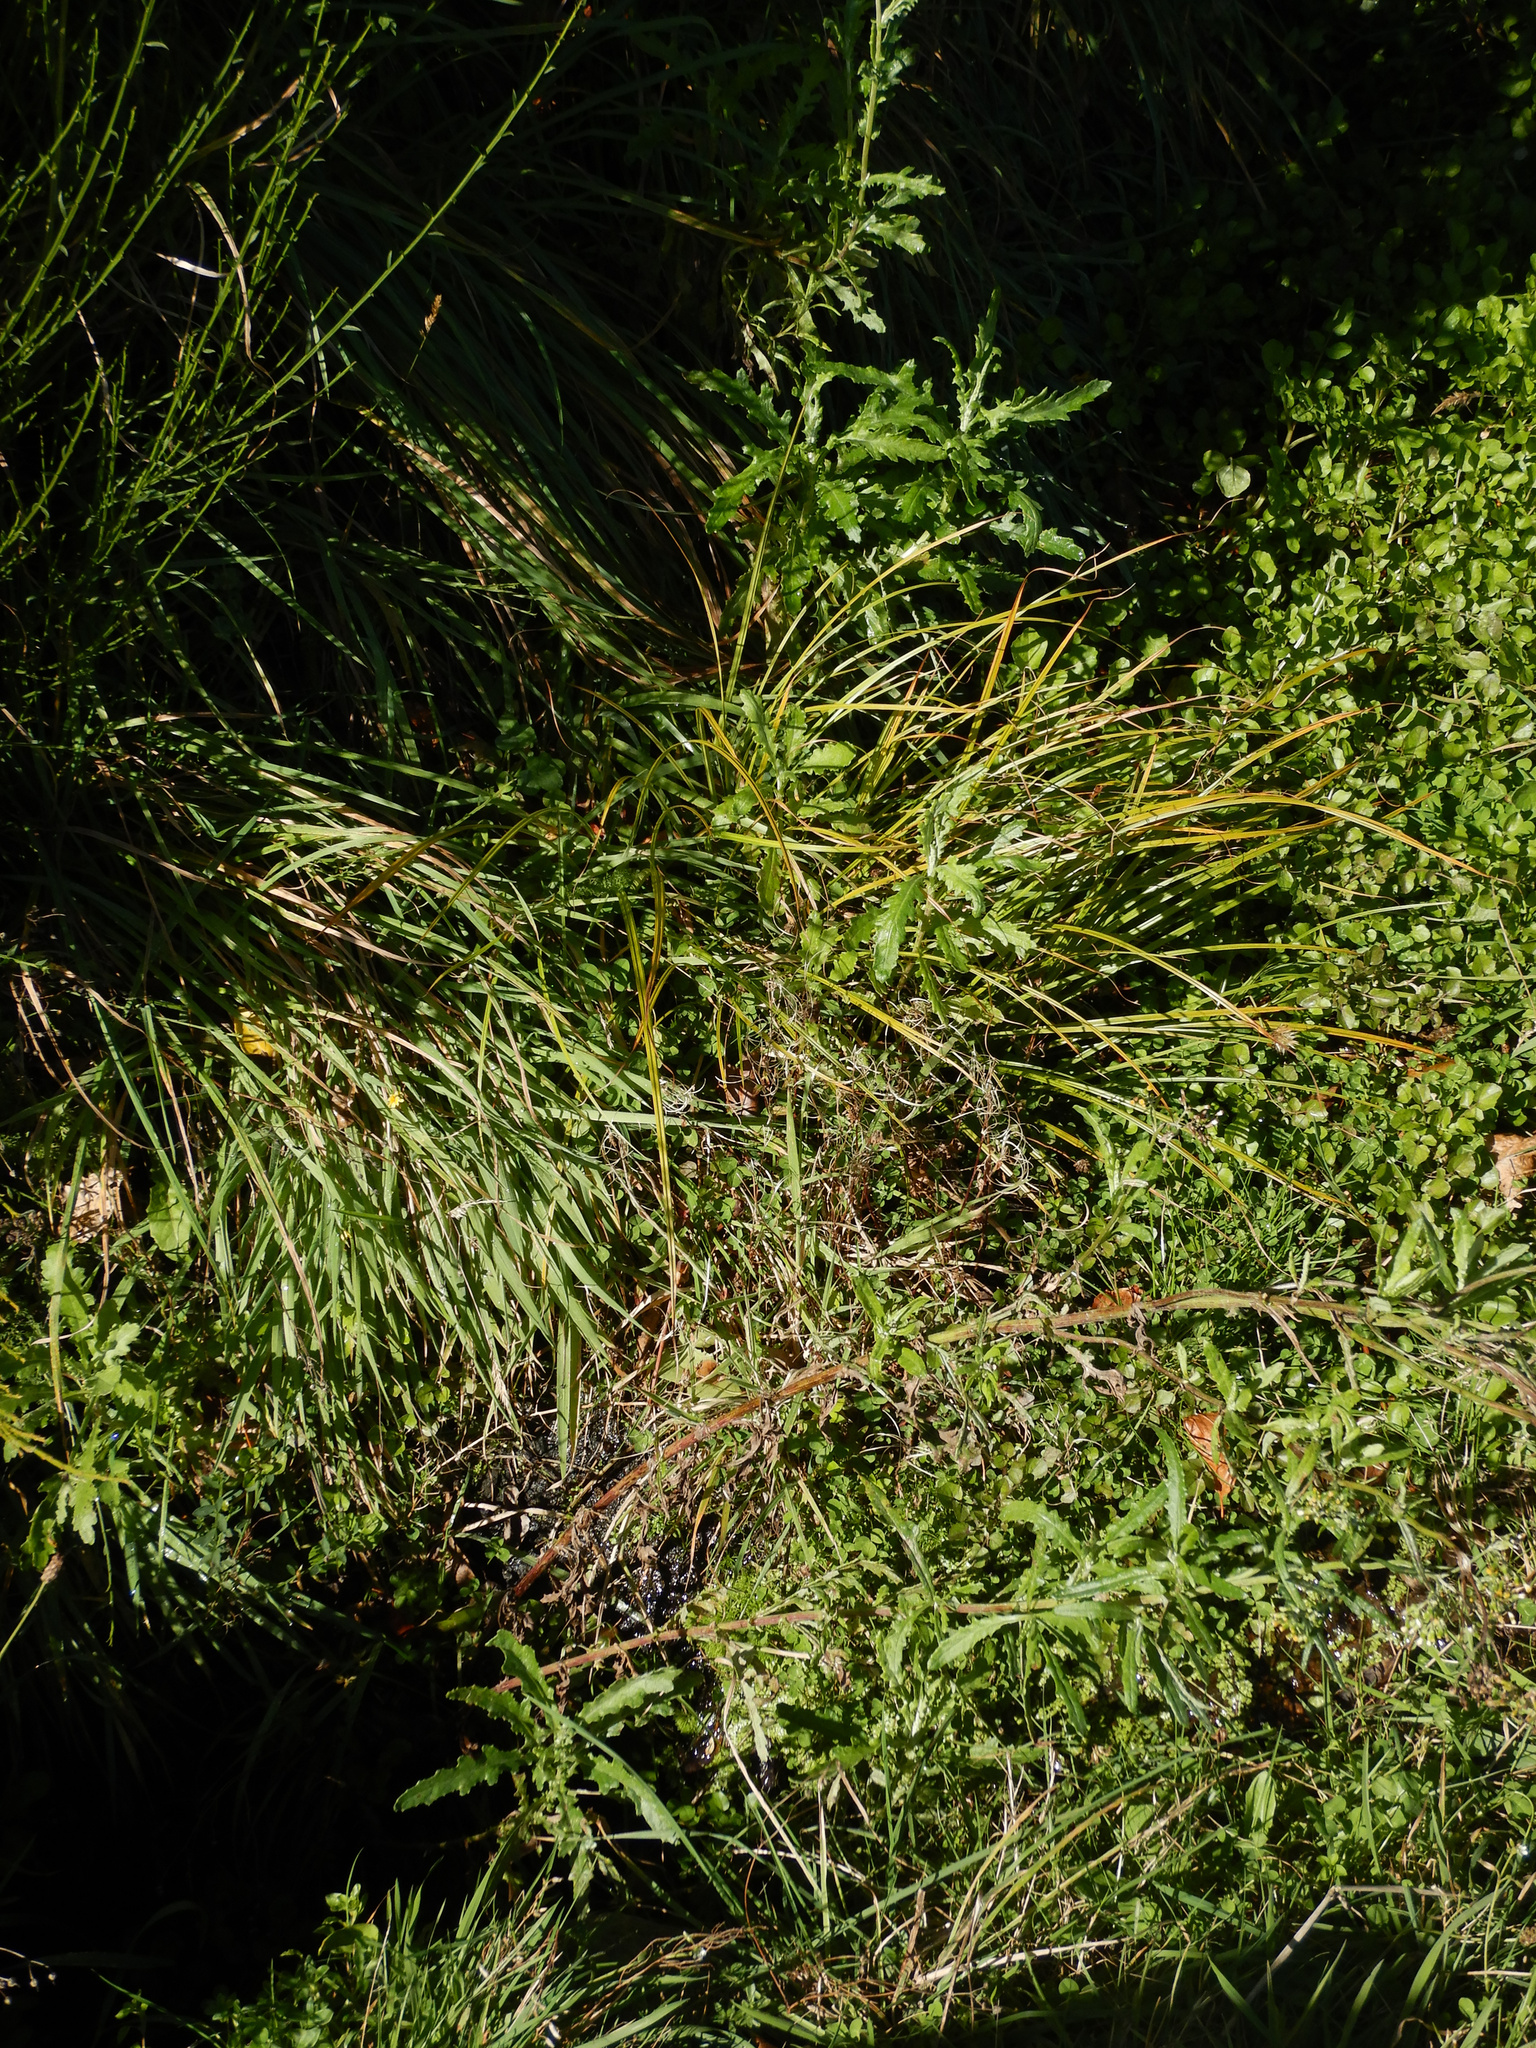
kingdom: Plantae
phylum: Tracheophyta
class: Magnoliopsida
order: Asterales
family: Asteraceae
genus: Senecio
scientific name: Senecio glomeratus
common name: Cutleaf burnweed
